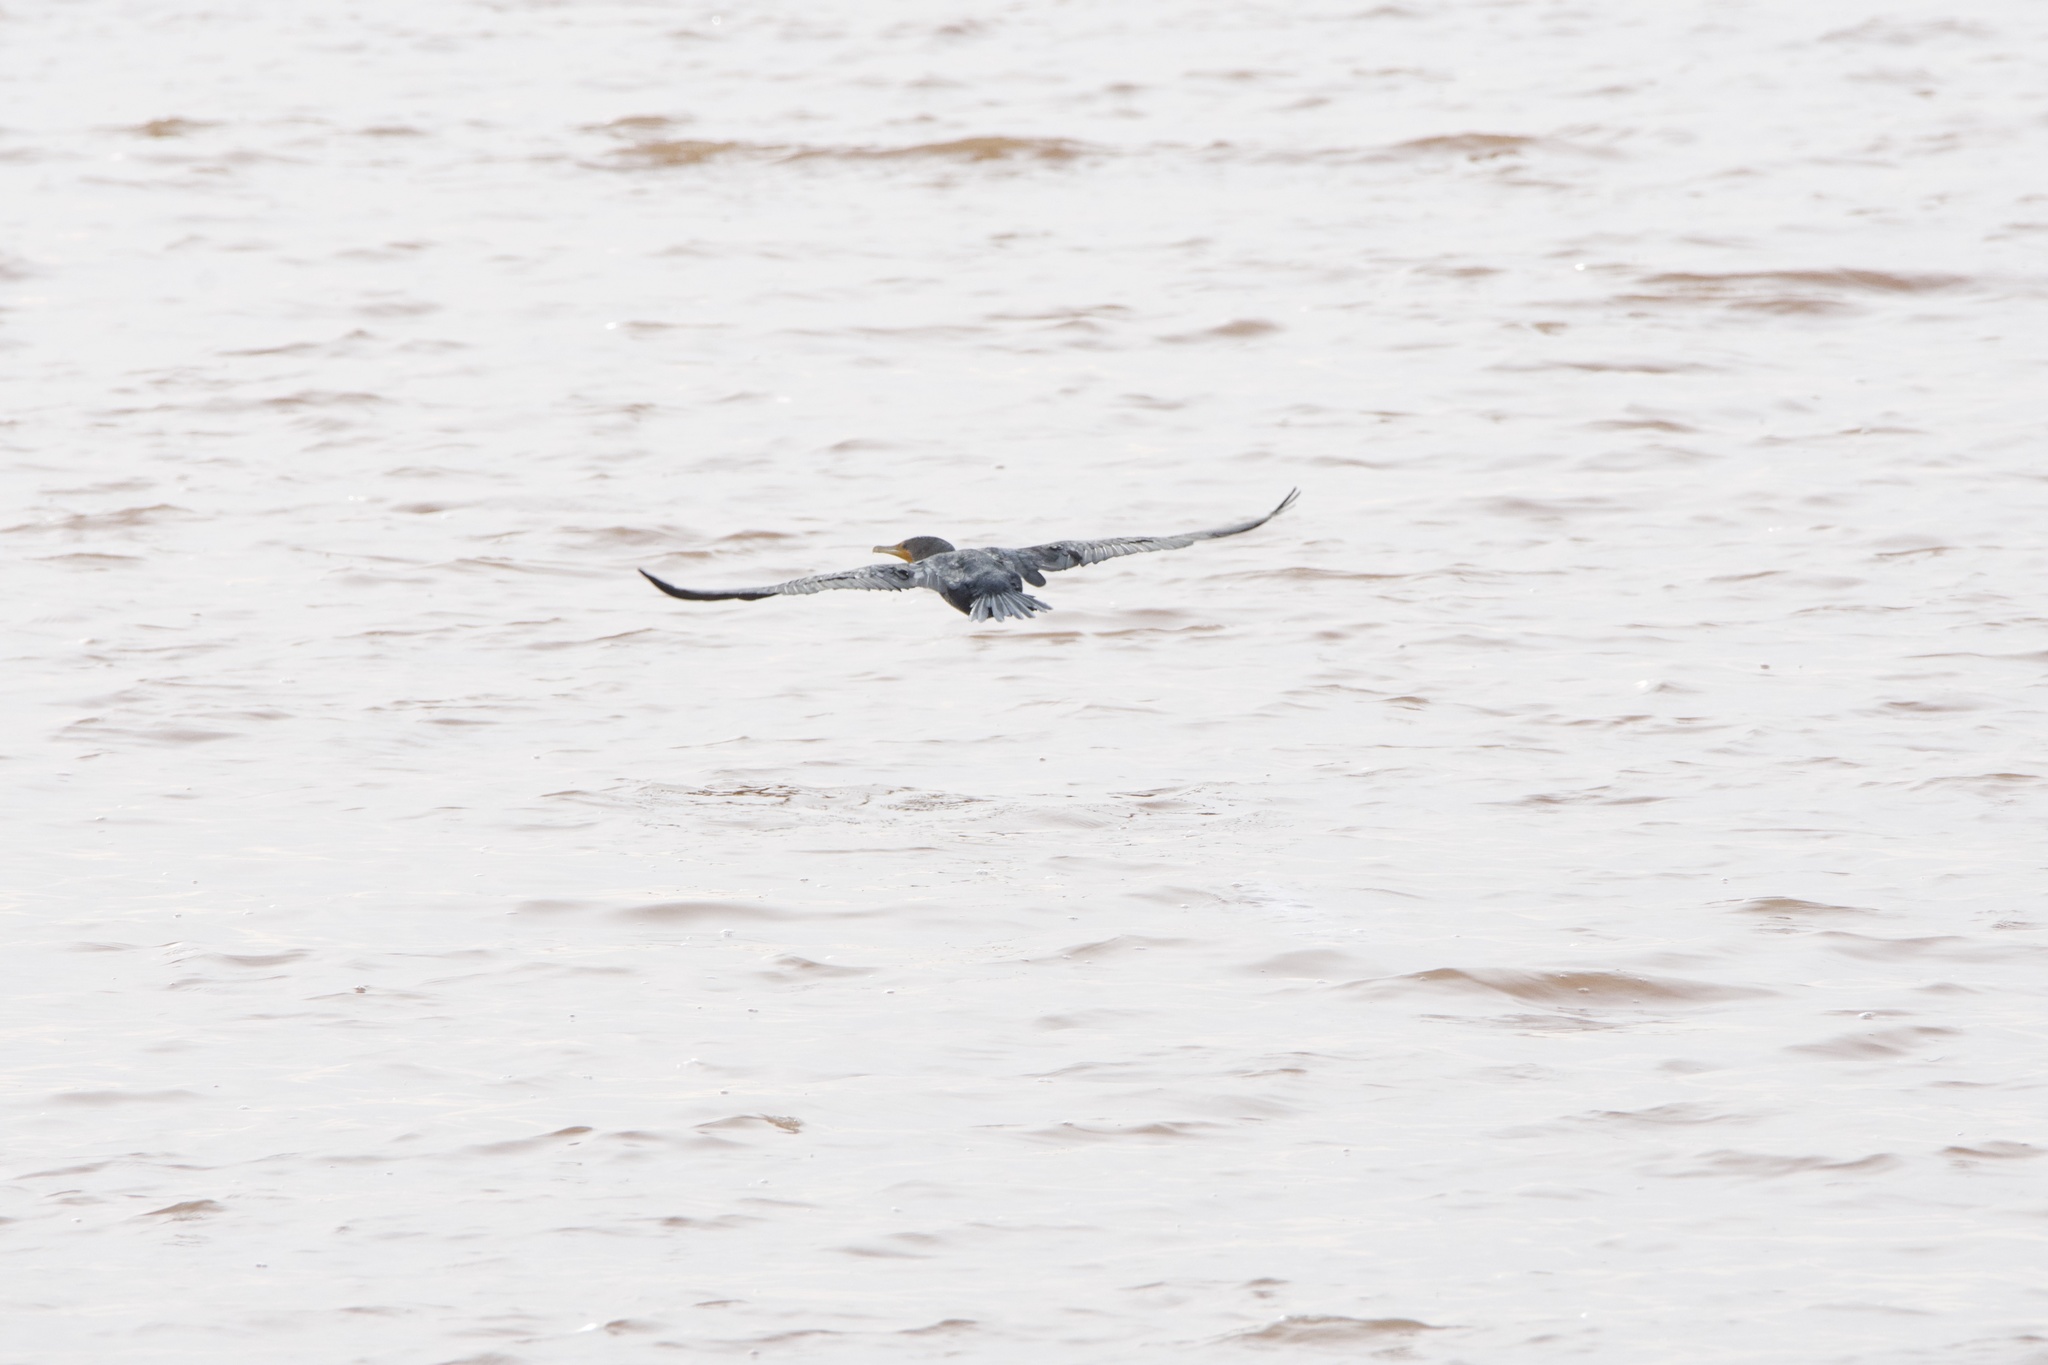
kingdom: Animalia
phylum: Chordata
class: Aves
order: Suliformes
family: Phalacrocoracidae
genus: Phalacrocorax
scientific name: Phalacrocorax auritus
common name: Double-crested cormorant
